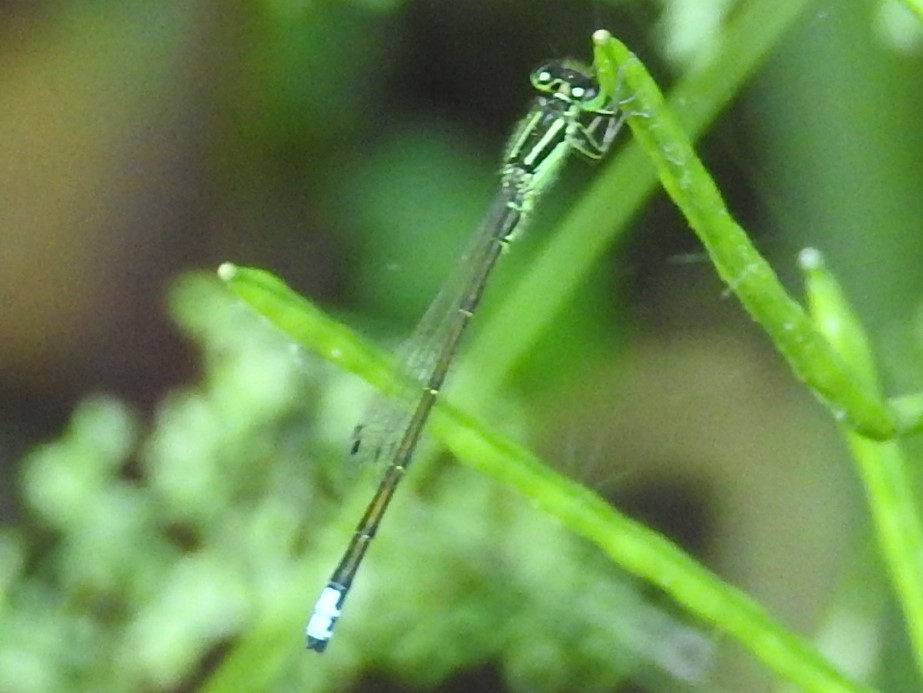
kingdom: Animalia
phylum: Arthropoda
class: Insecta
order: Odonata
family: Coenagrionidae
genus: Ischnura
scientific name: Ischnura verticalis
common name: Eastern forktail
